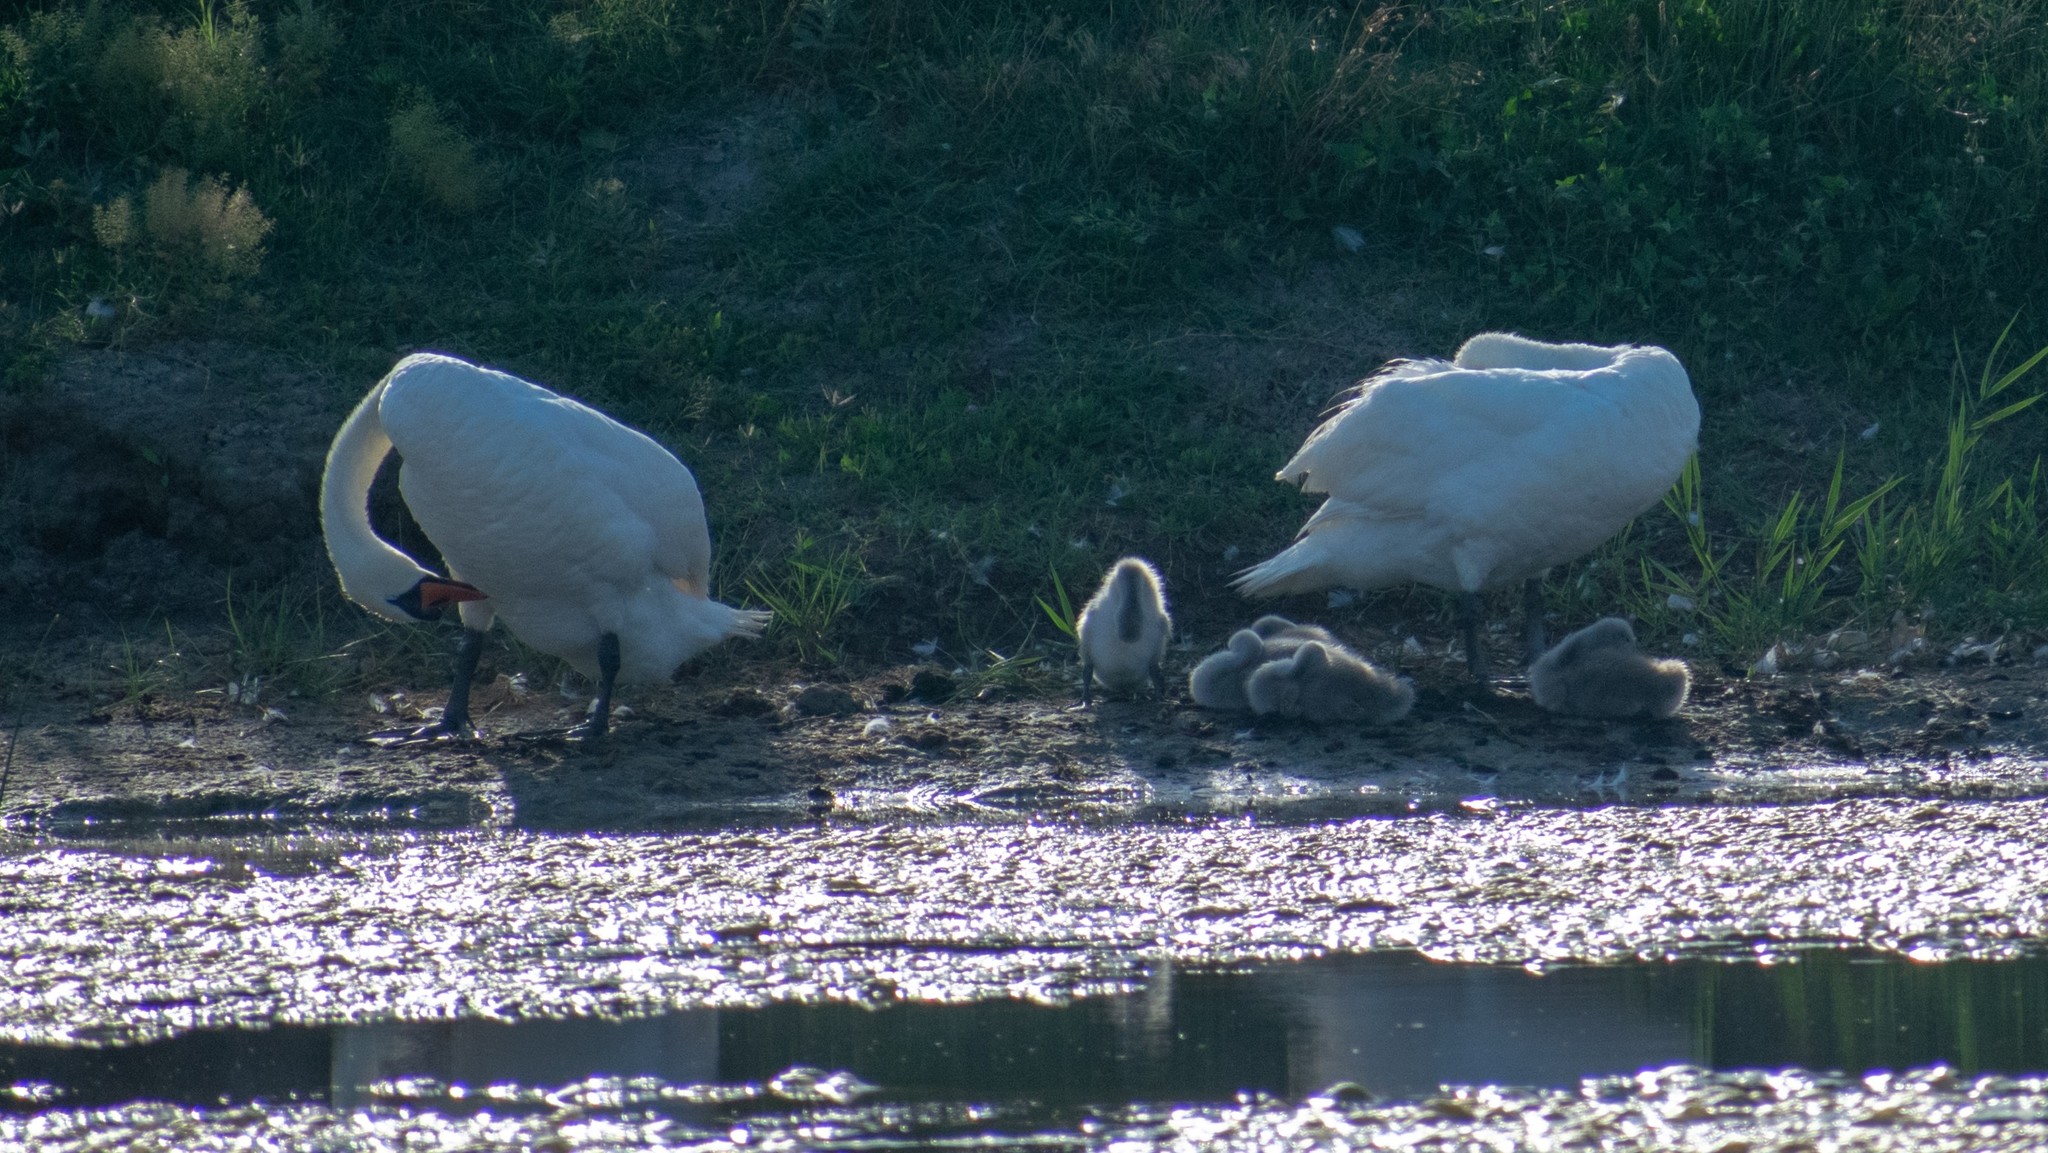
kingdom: Animalia
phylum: Chordata
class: Aves
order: Anseriformes
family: Anatidae
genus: Cygnus
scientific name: Cygnus olor
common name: Mute swan
